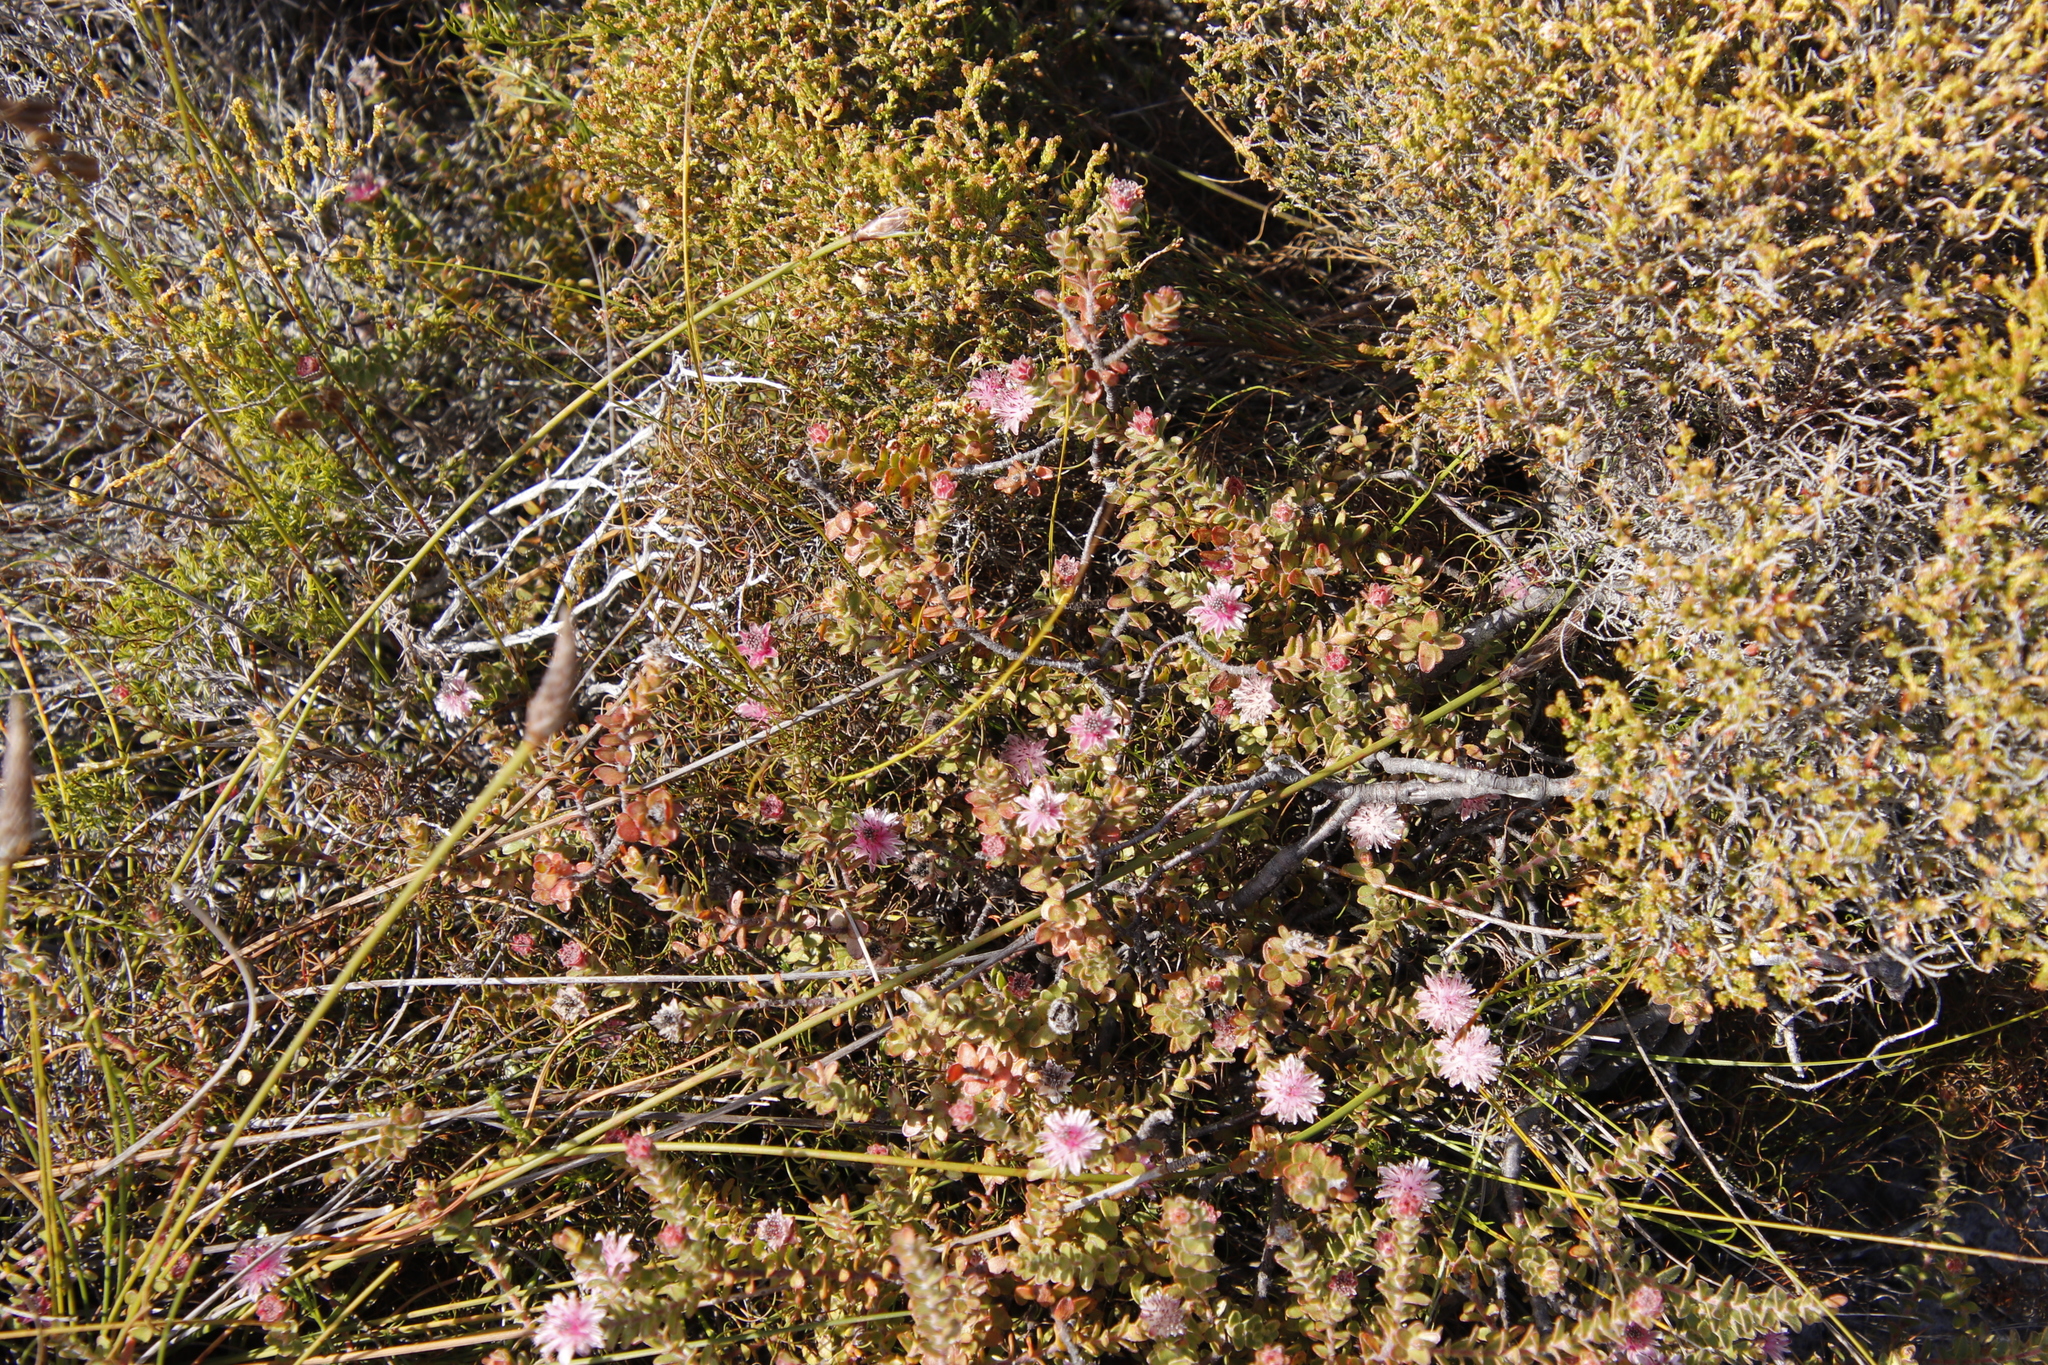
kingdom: Plantae
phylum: Tracheophyta
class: Magnoliopsida
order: Proteales
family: Proteaceae
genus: Diastella
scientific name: Diastella divaricata
